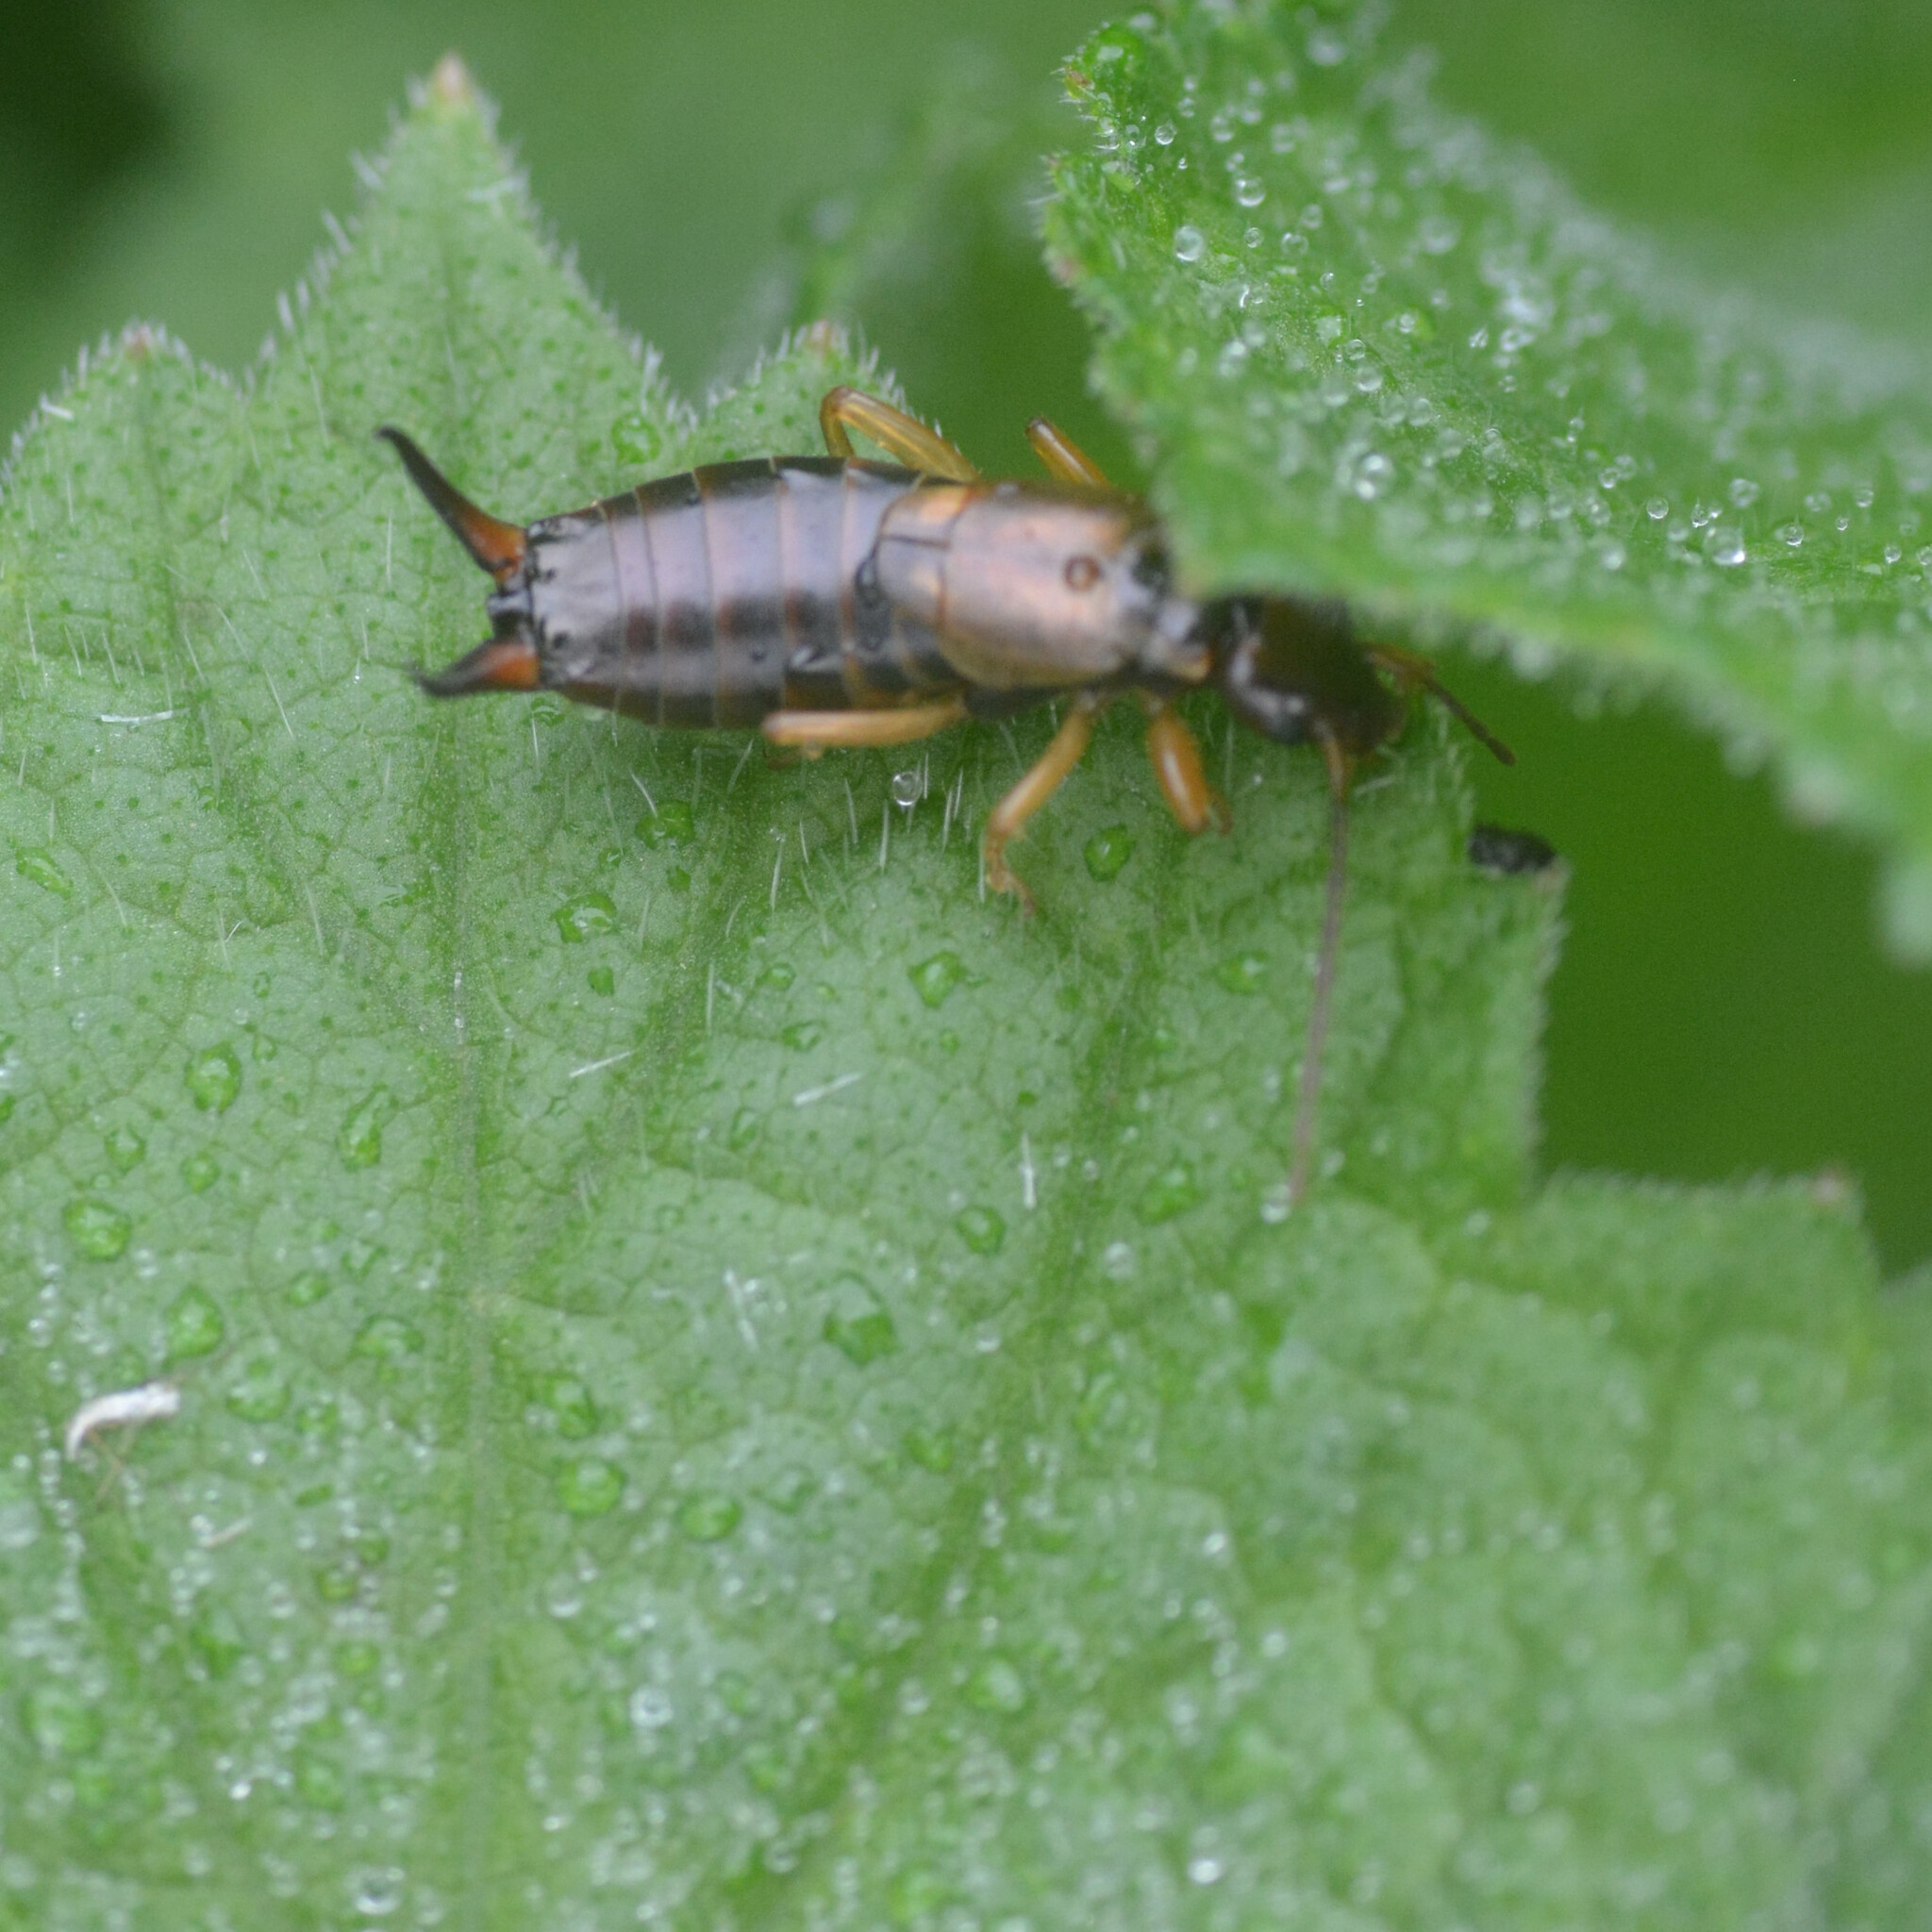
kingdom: Animalia
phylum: Arthropoda
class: Insecta
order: Dermaptera
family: Forficulidae
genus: Forficula
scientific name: Forficula
